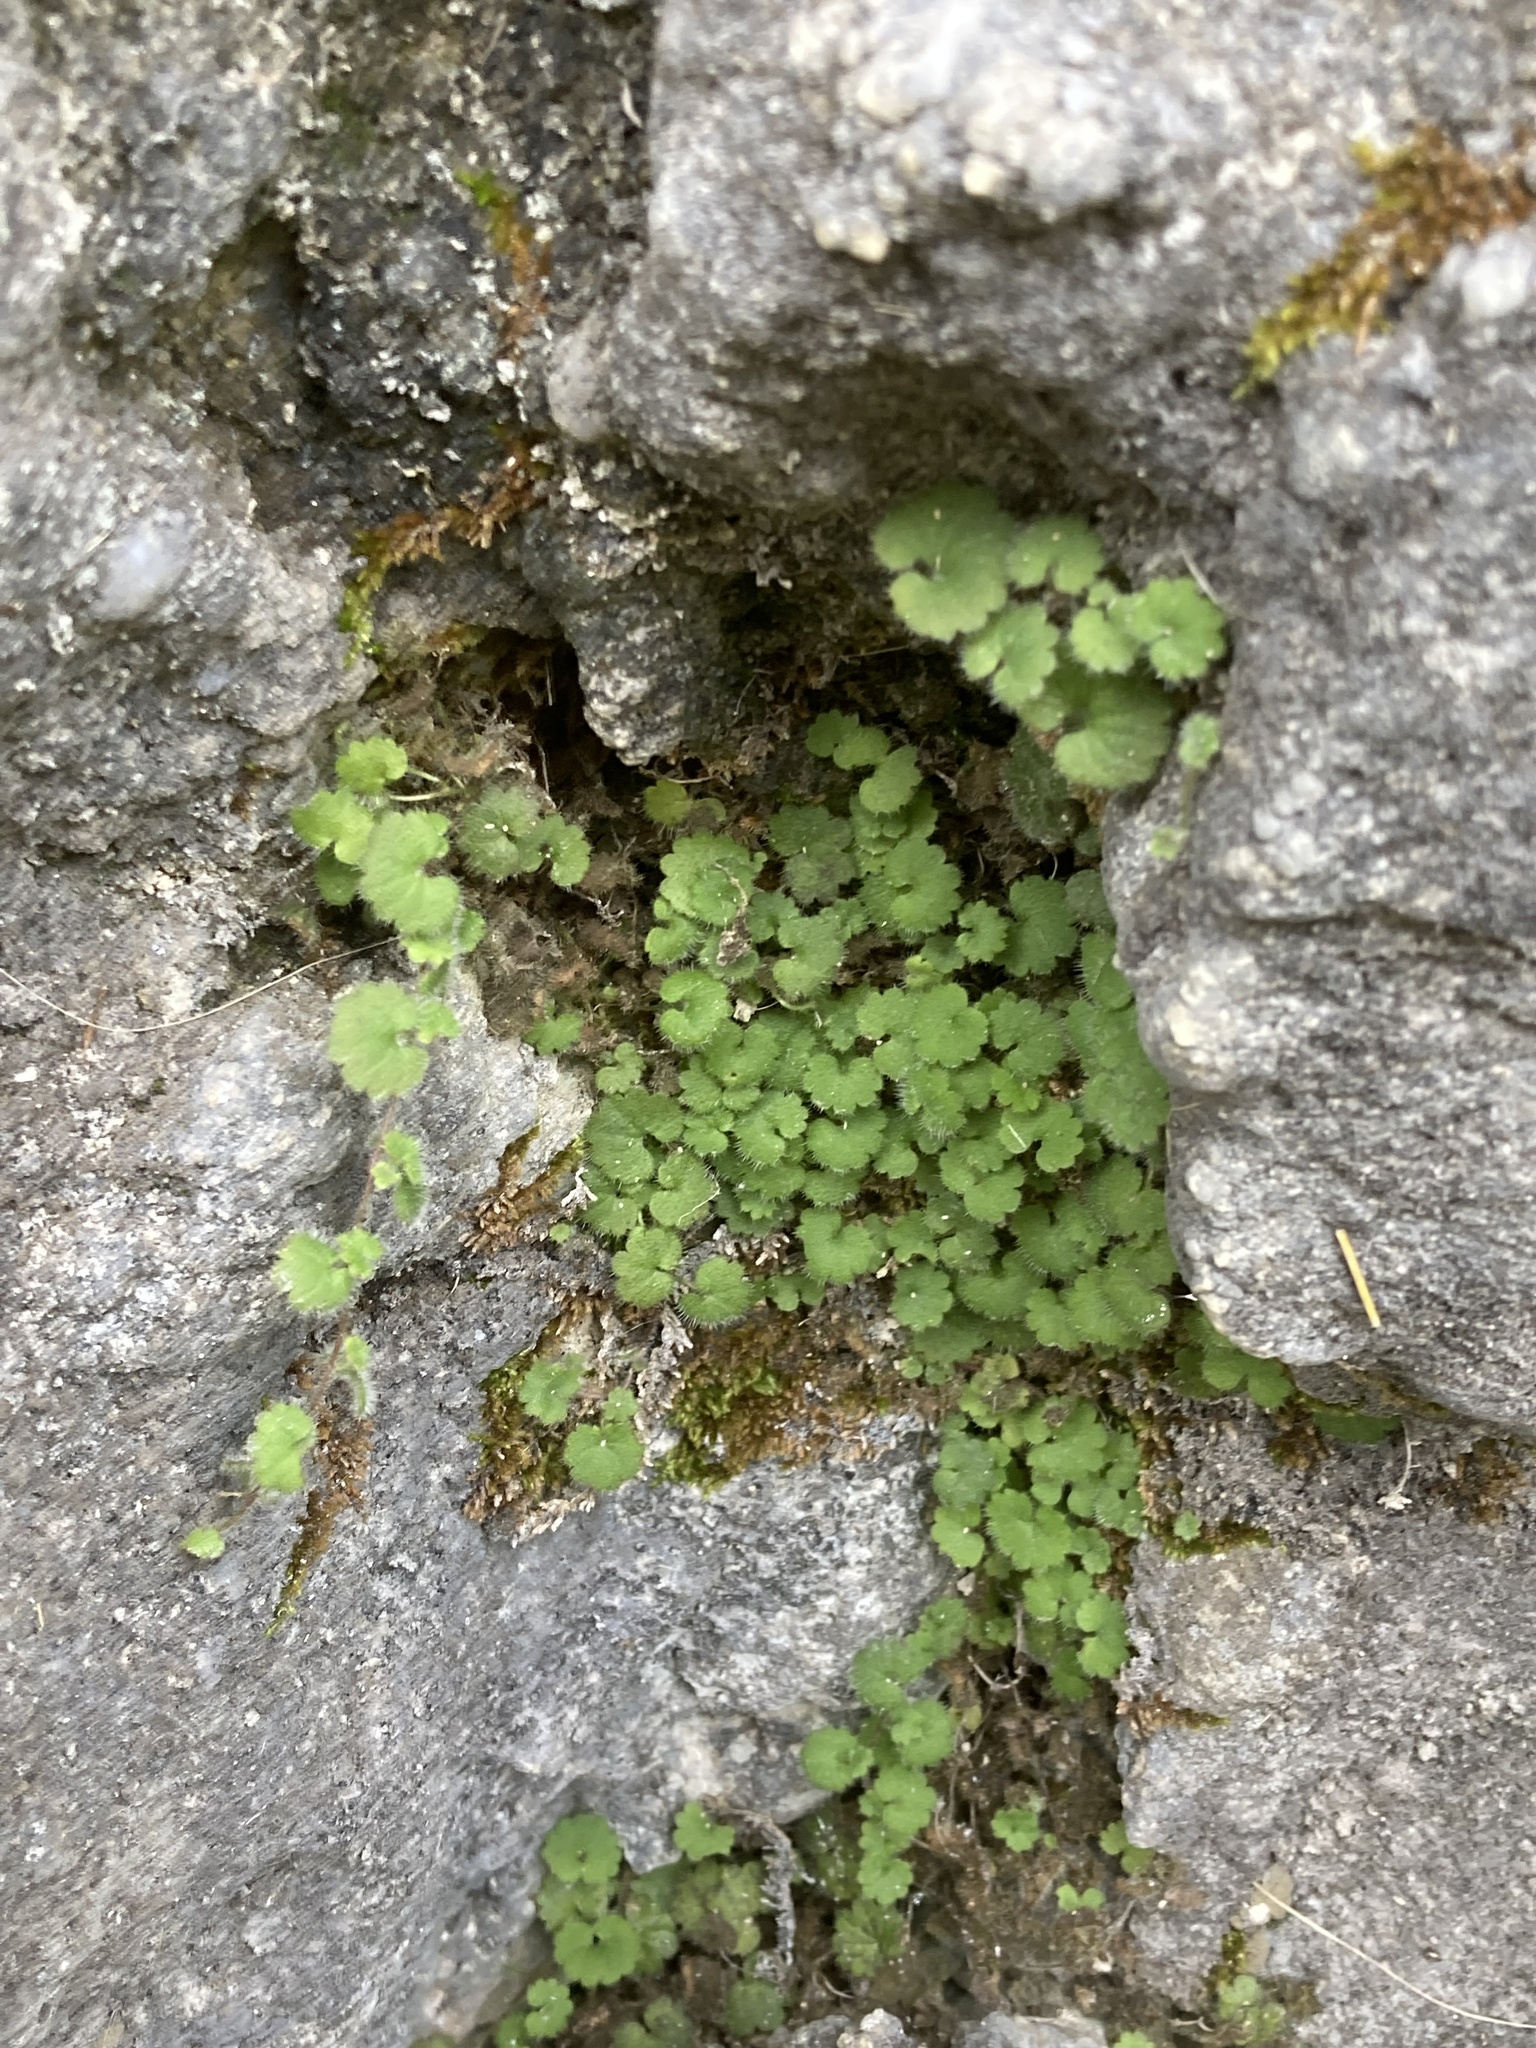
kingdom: Plantae
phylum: Tracheophyta
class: Magnoliopsida
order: Lamiales
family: Plantaginaceae
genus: Sibthorpia
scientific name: Sibthorpia africana
